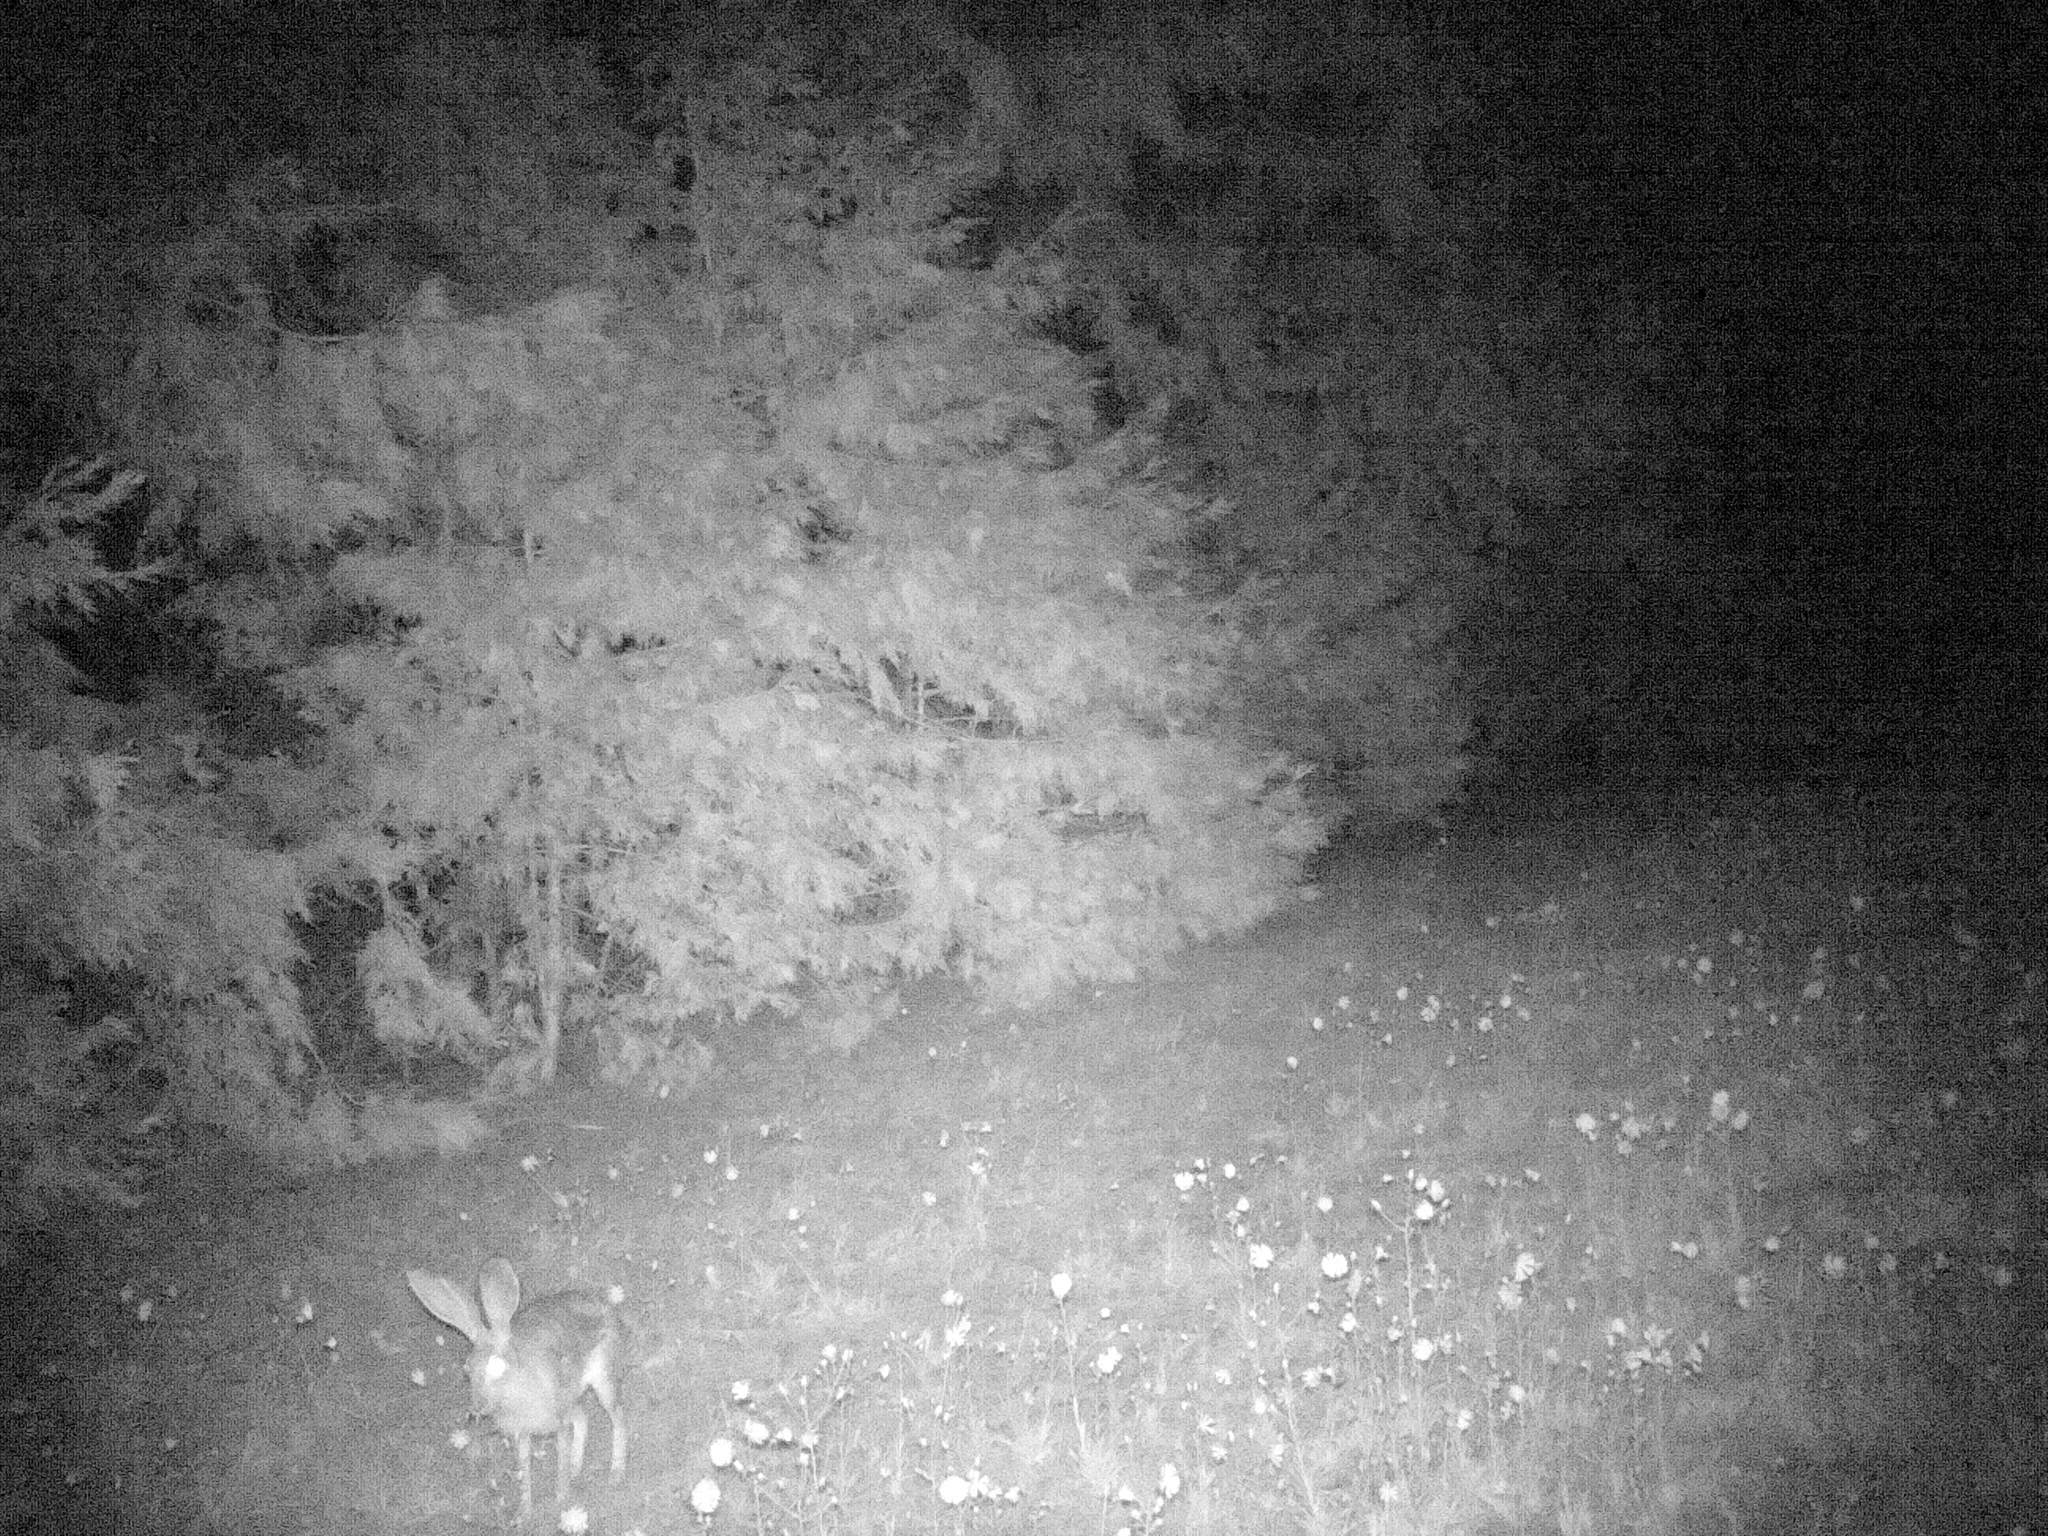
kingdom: Animalia
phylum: Chordata
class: Mammalia
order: Lagomorpha
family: Leporidae
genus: Lepus
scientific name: Lepus californicus
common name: Black-tailed jackrabbit
